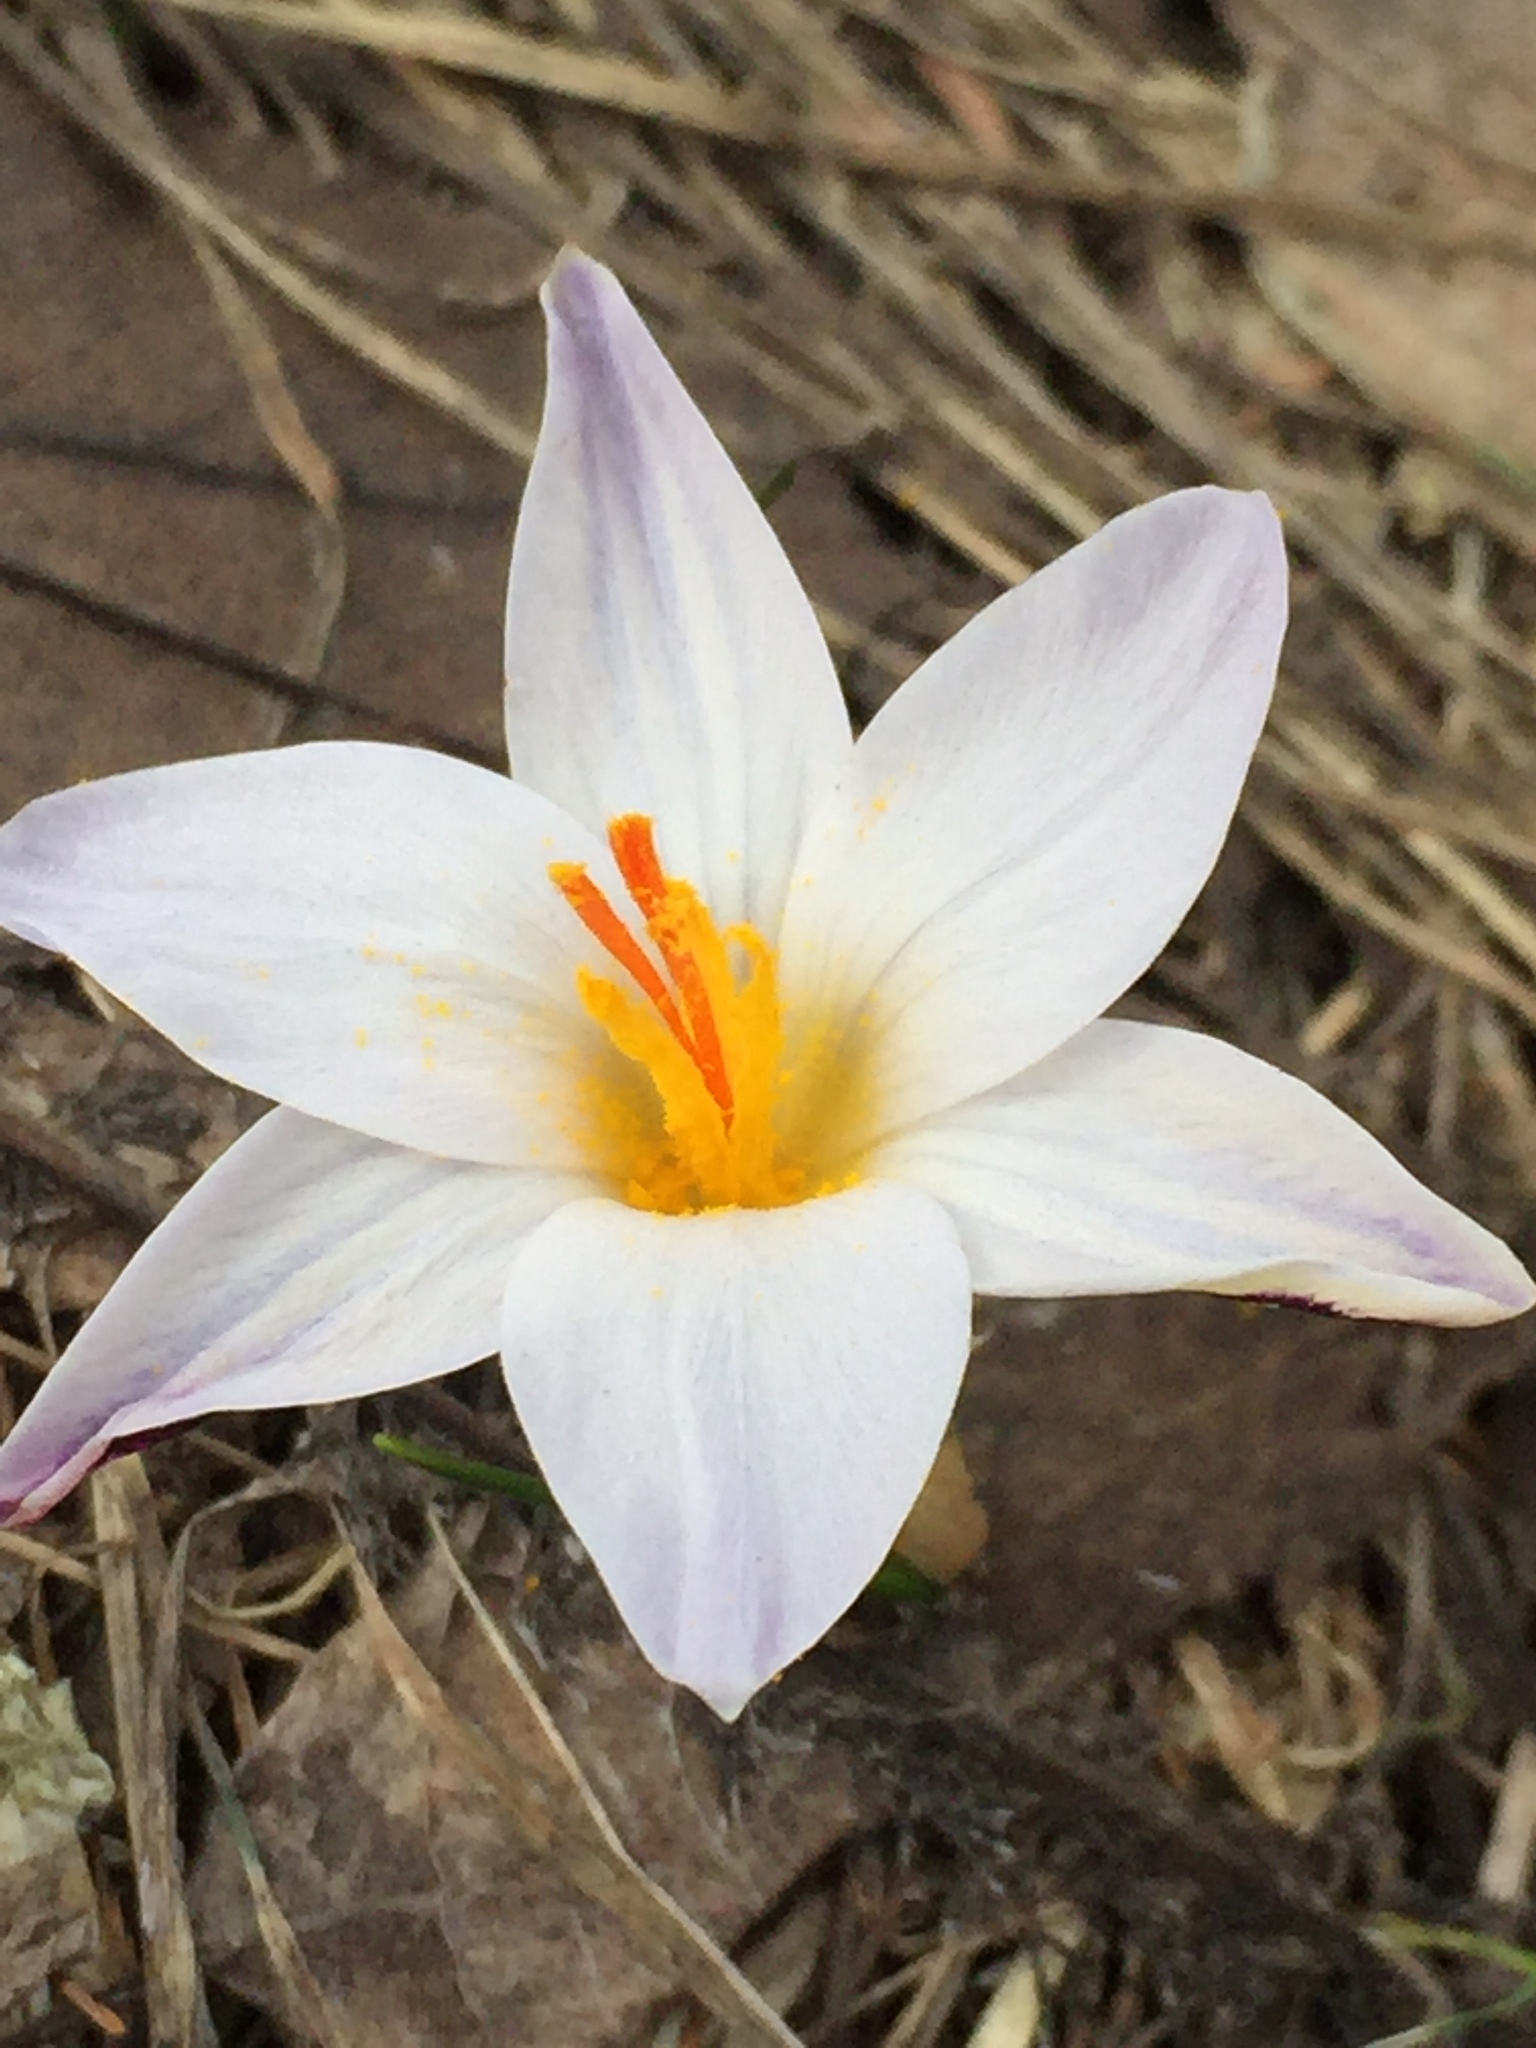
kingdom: Plantae
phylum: Tracheophyta
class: Liliopsida
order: Asparagales
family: Iridaceae
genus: Crocus
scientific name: Crocus reticulatus
